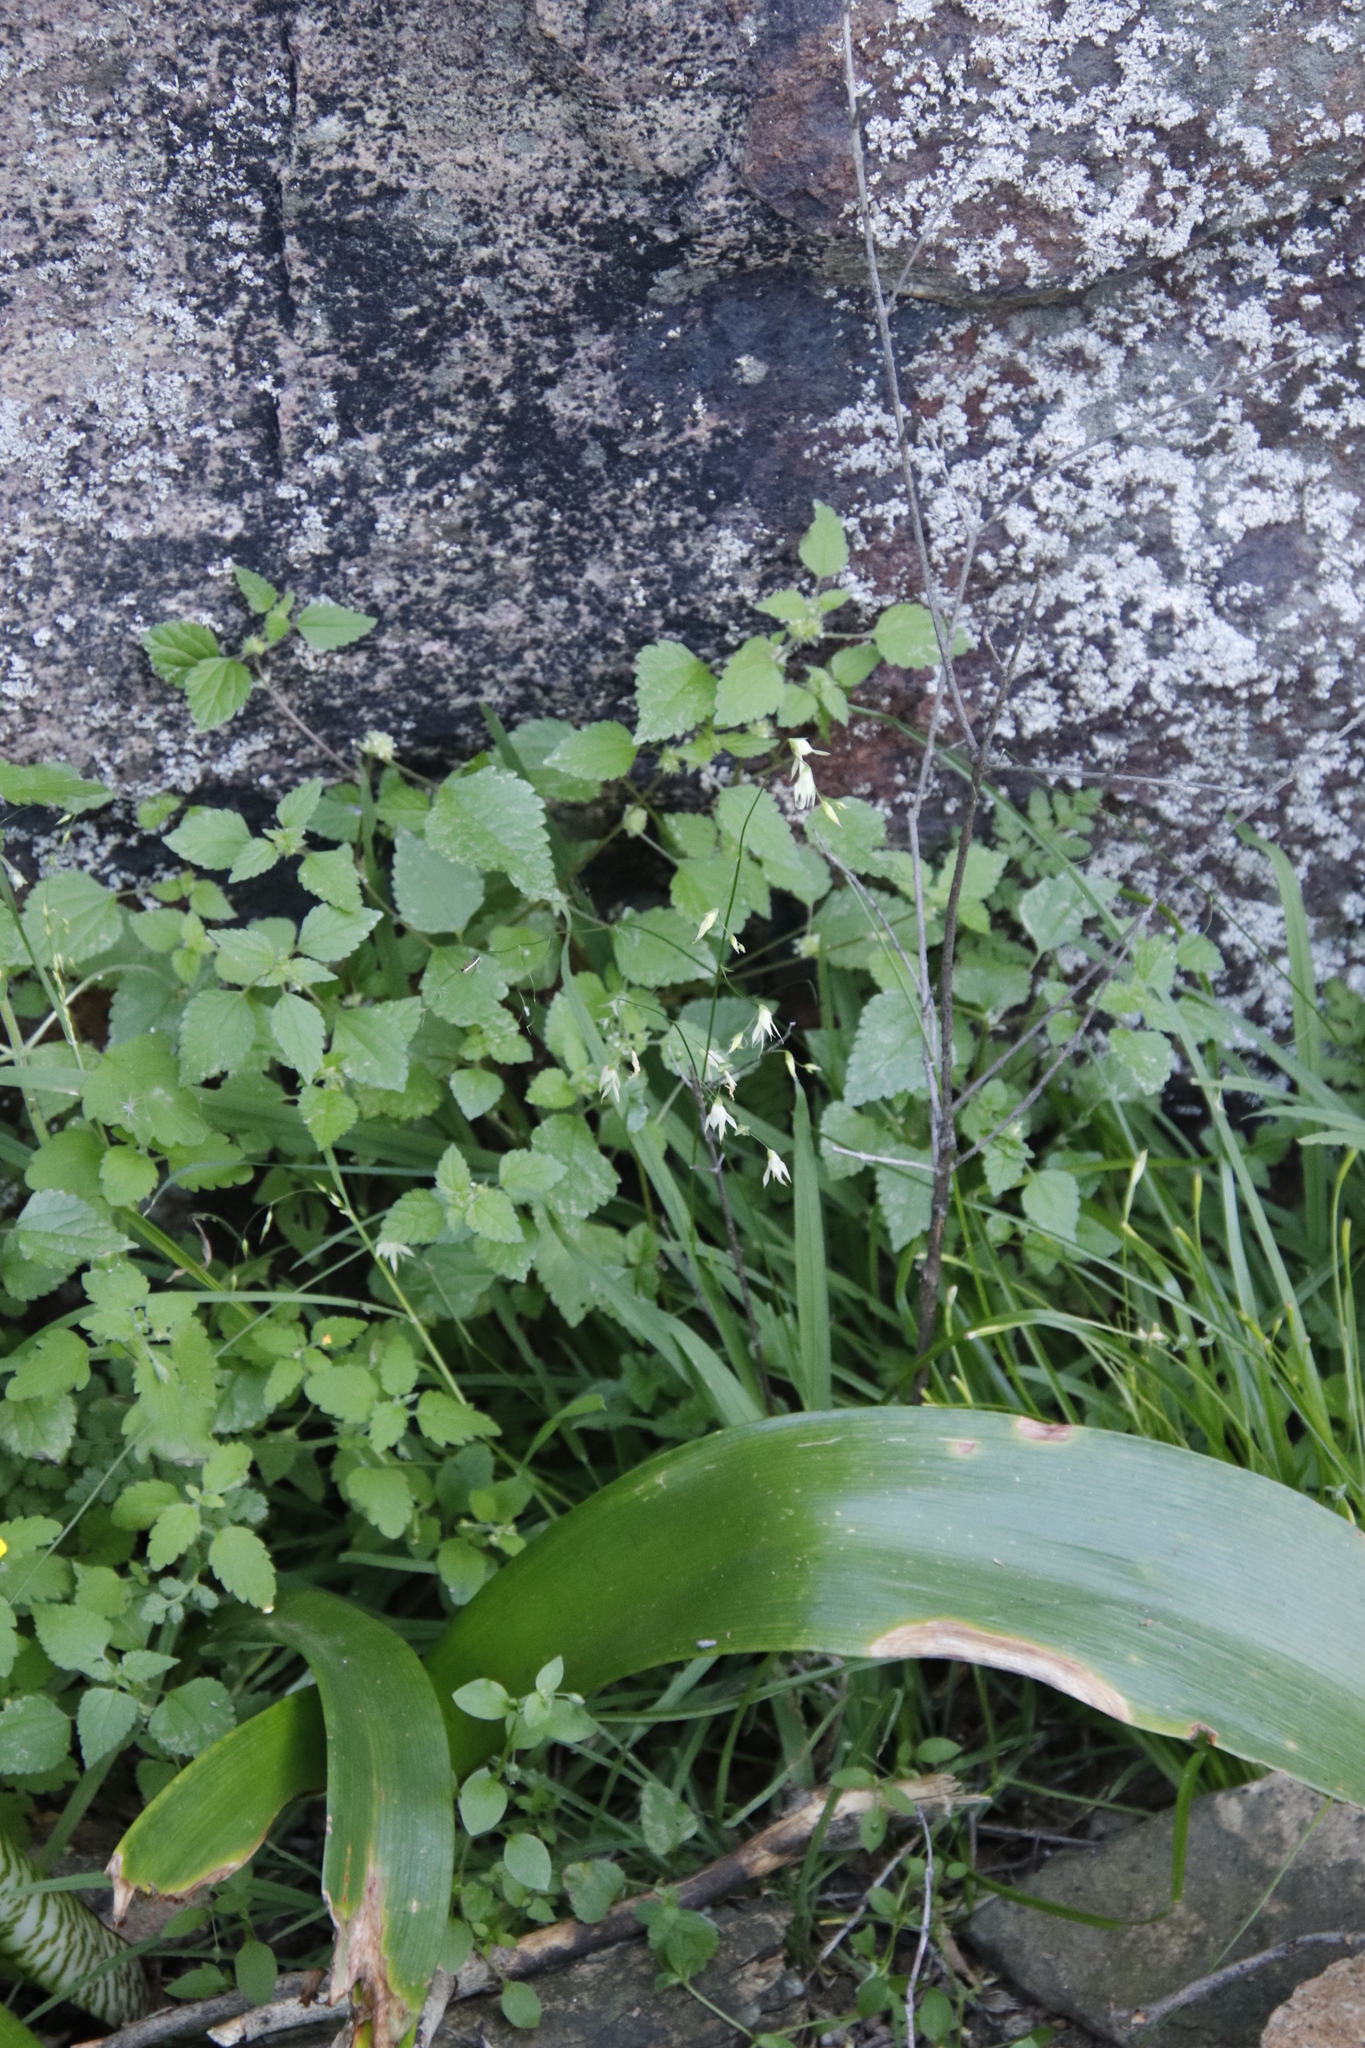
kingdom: Plantae
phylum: Tracheophyta
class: Liliopsida
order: Asparagales
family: Iridaceae
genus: Melasphaerula
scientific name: Melasphaerula graminea
